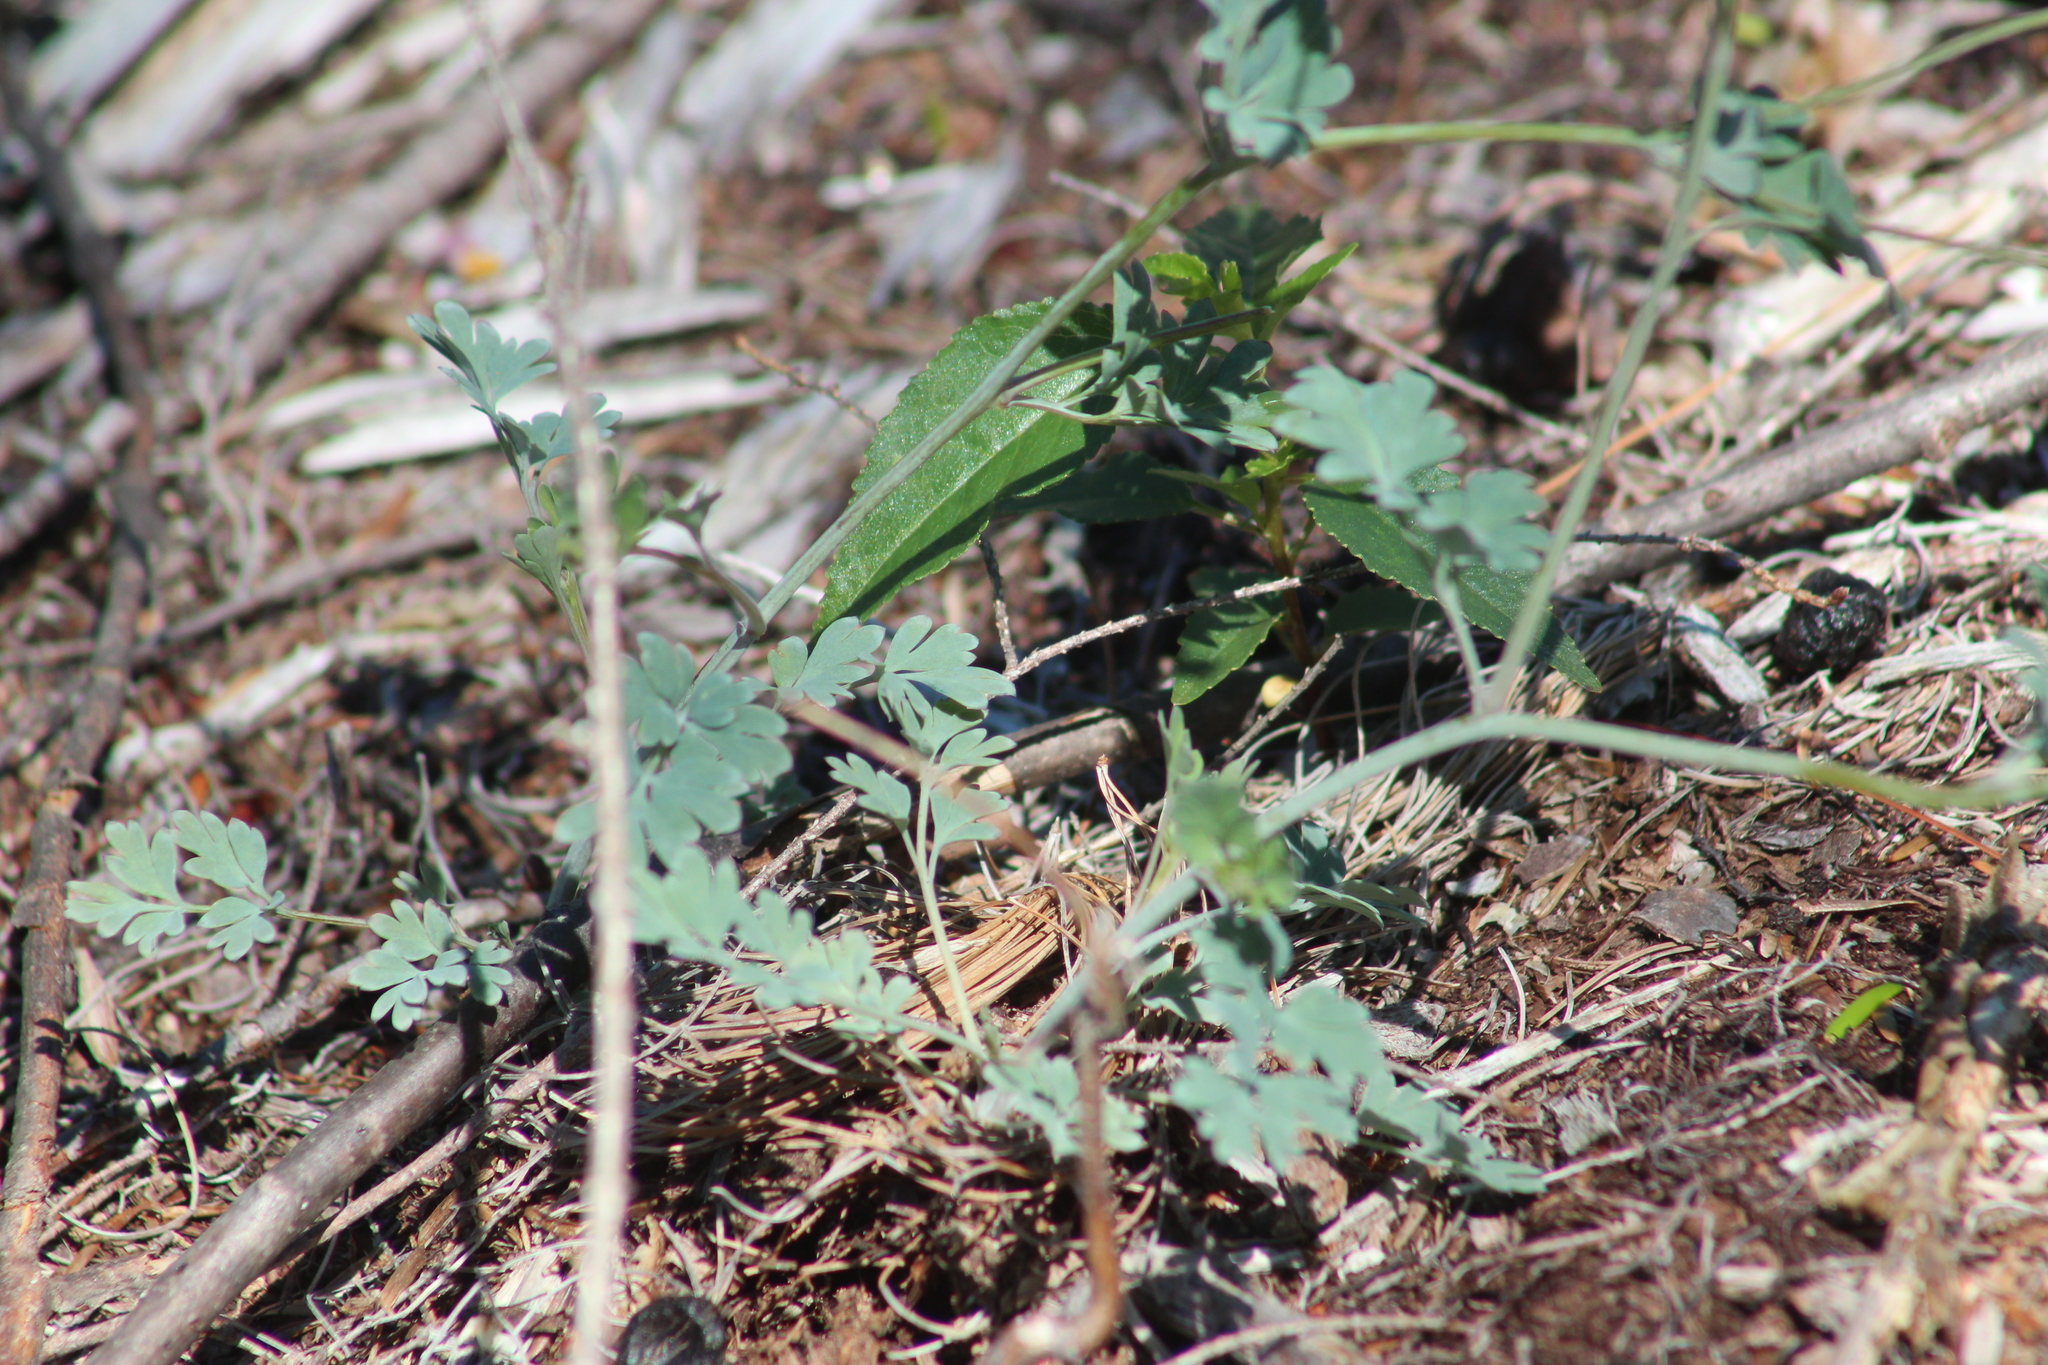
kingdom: Plantae
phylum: Tracheophyta
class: Magnoliopsida
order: Ranunculales
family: Papaveraceae
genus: Capnoides
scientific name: Capnoides sempervirens
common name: Rock harlequin
